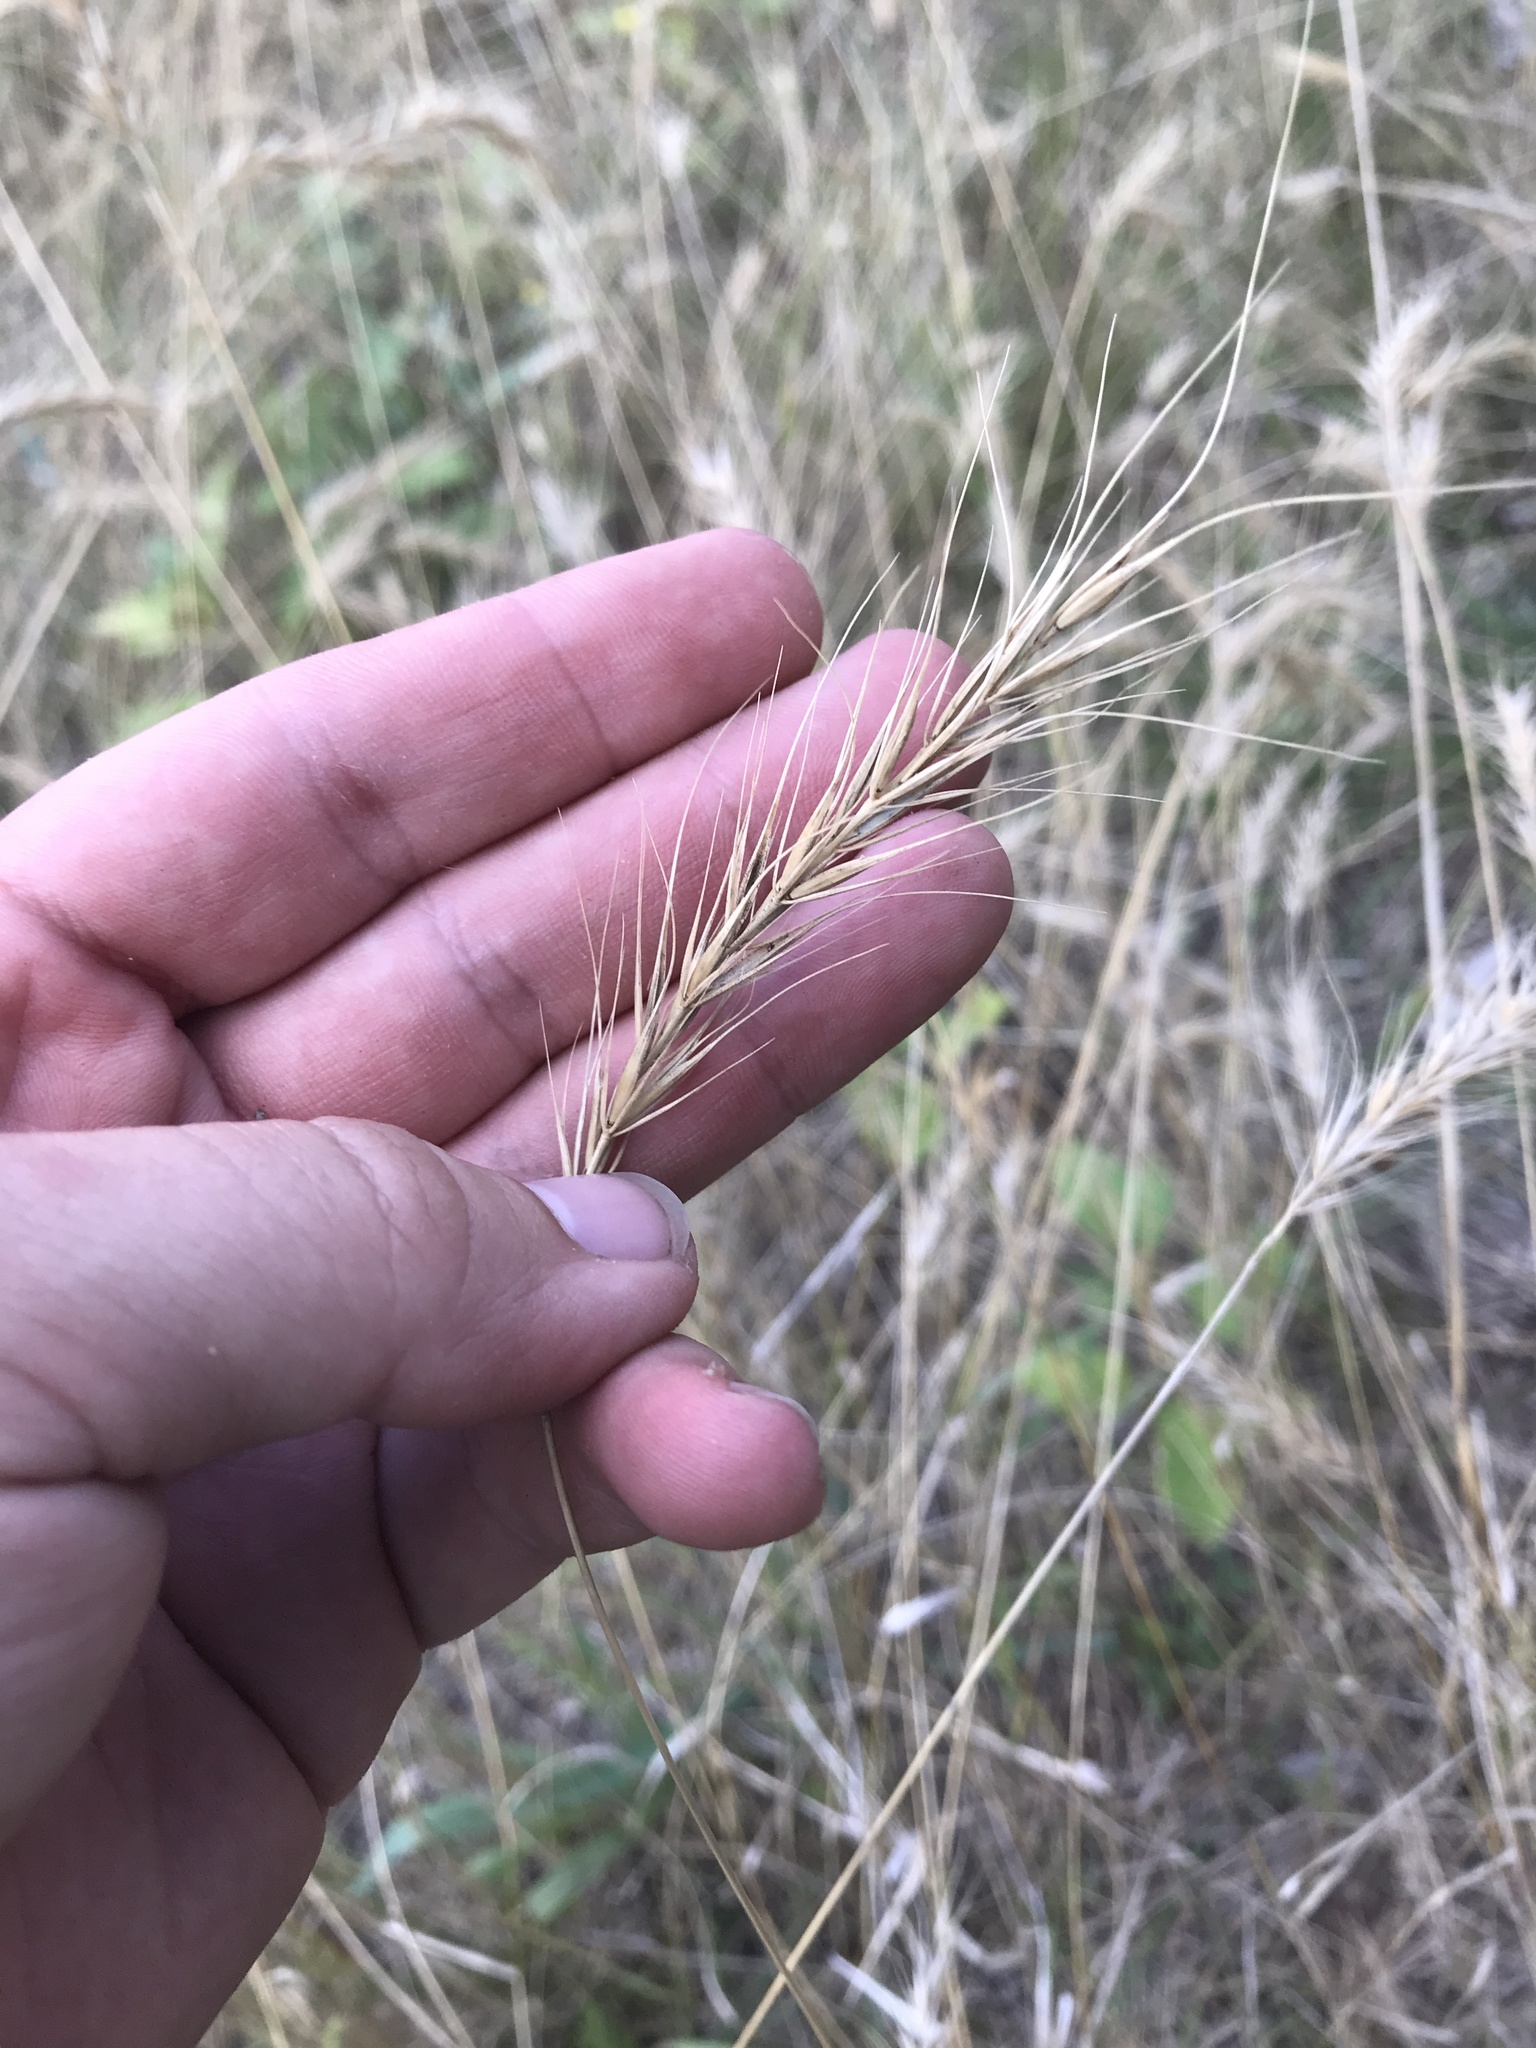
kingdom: Plantae
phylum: Tracheophyta
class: Liliopsida
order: Poales
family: Poaceae
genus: Elymus
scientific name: Elymus canadensis
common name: Canada wild rye
